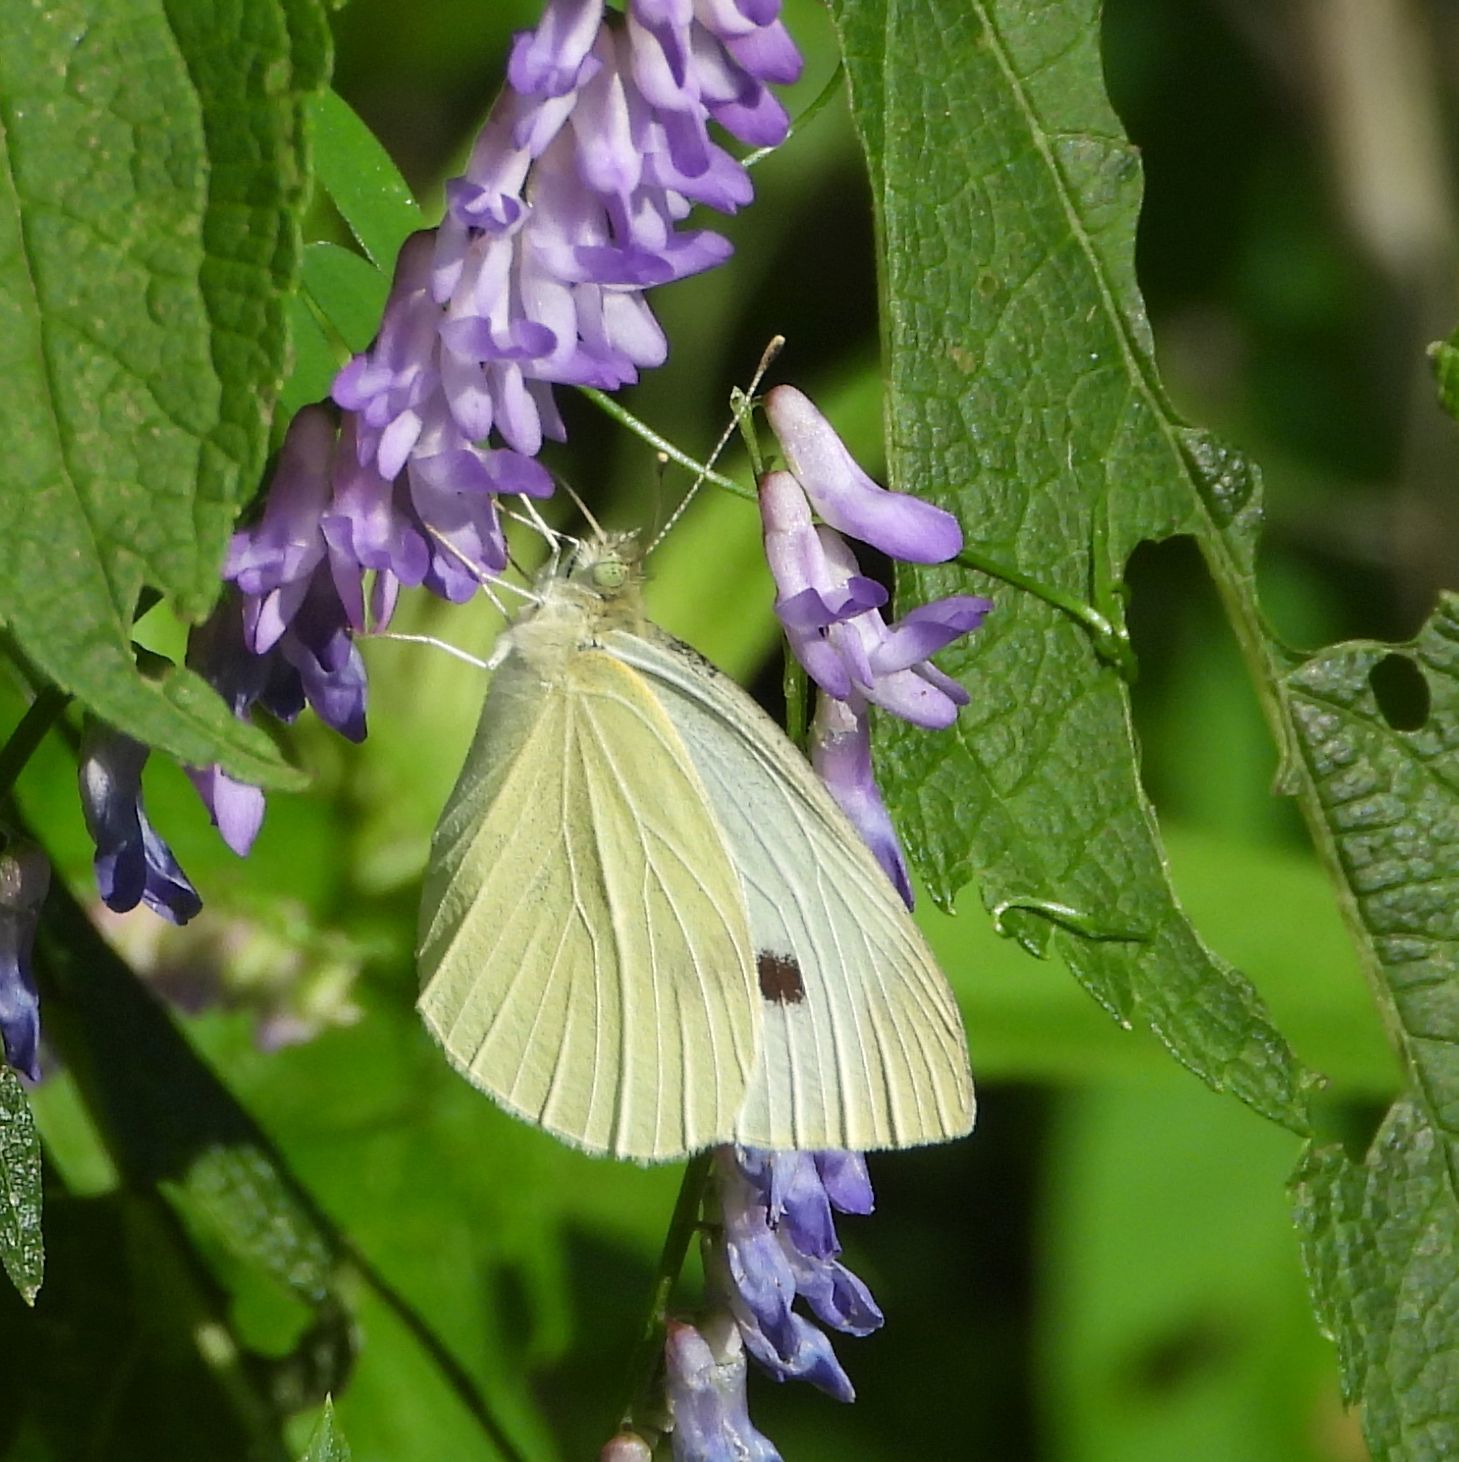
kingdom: Animalia
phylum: Arthropoda
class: Insecta
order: Lepidoptera
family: Pieridae
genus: Pieris
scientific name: Pieris rapae
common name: Small white
